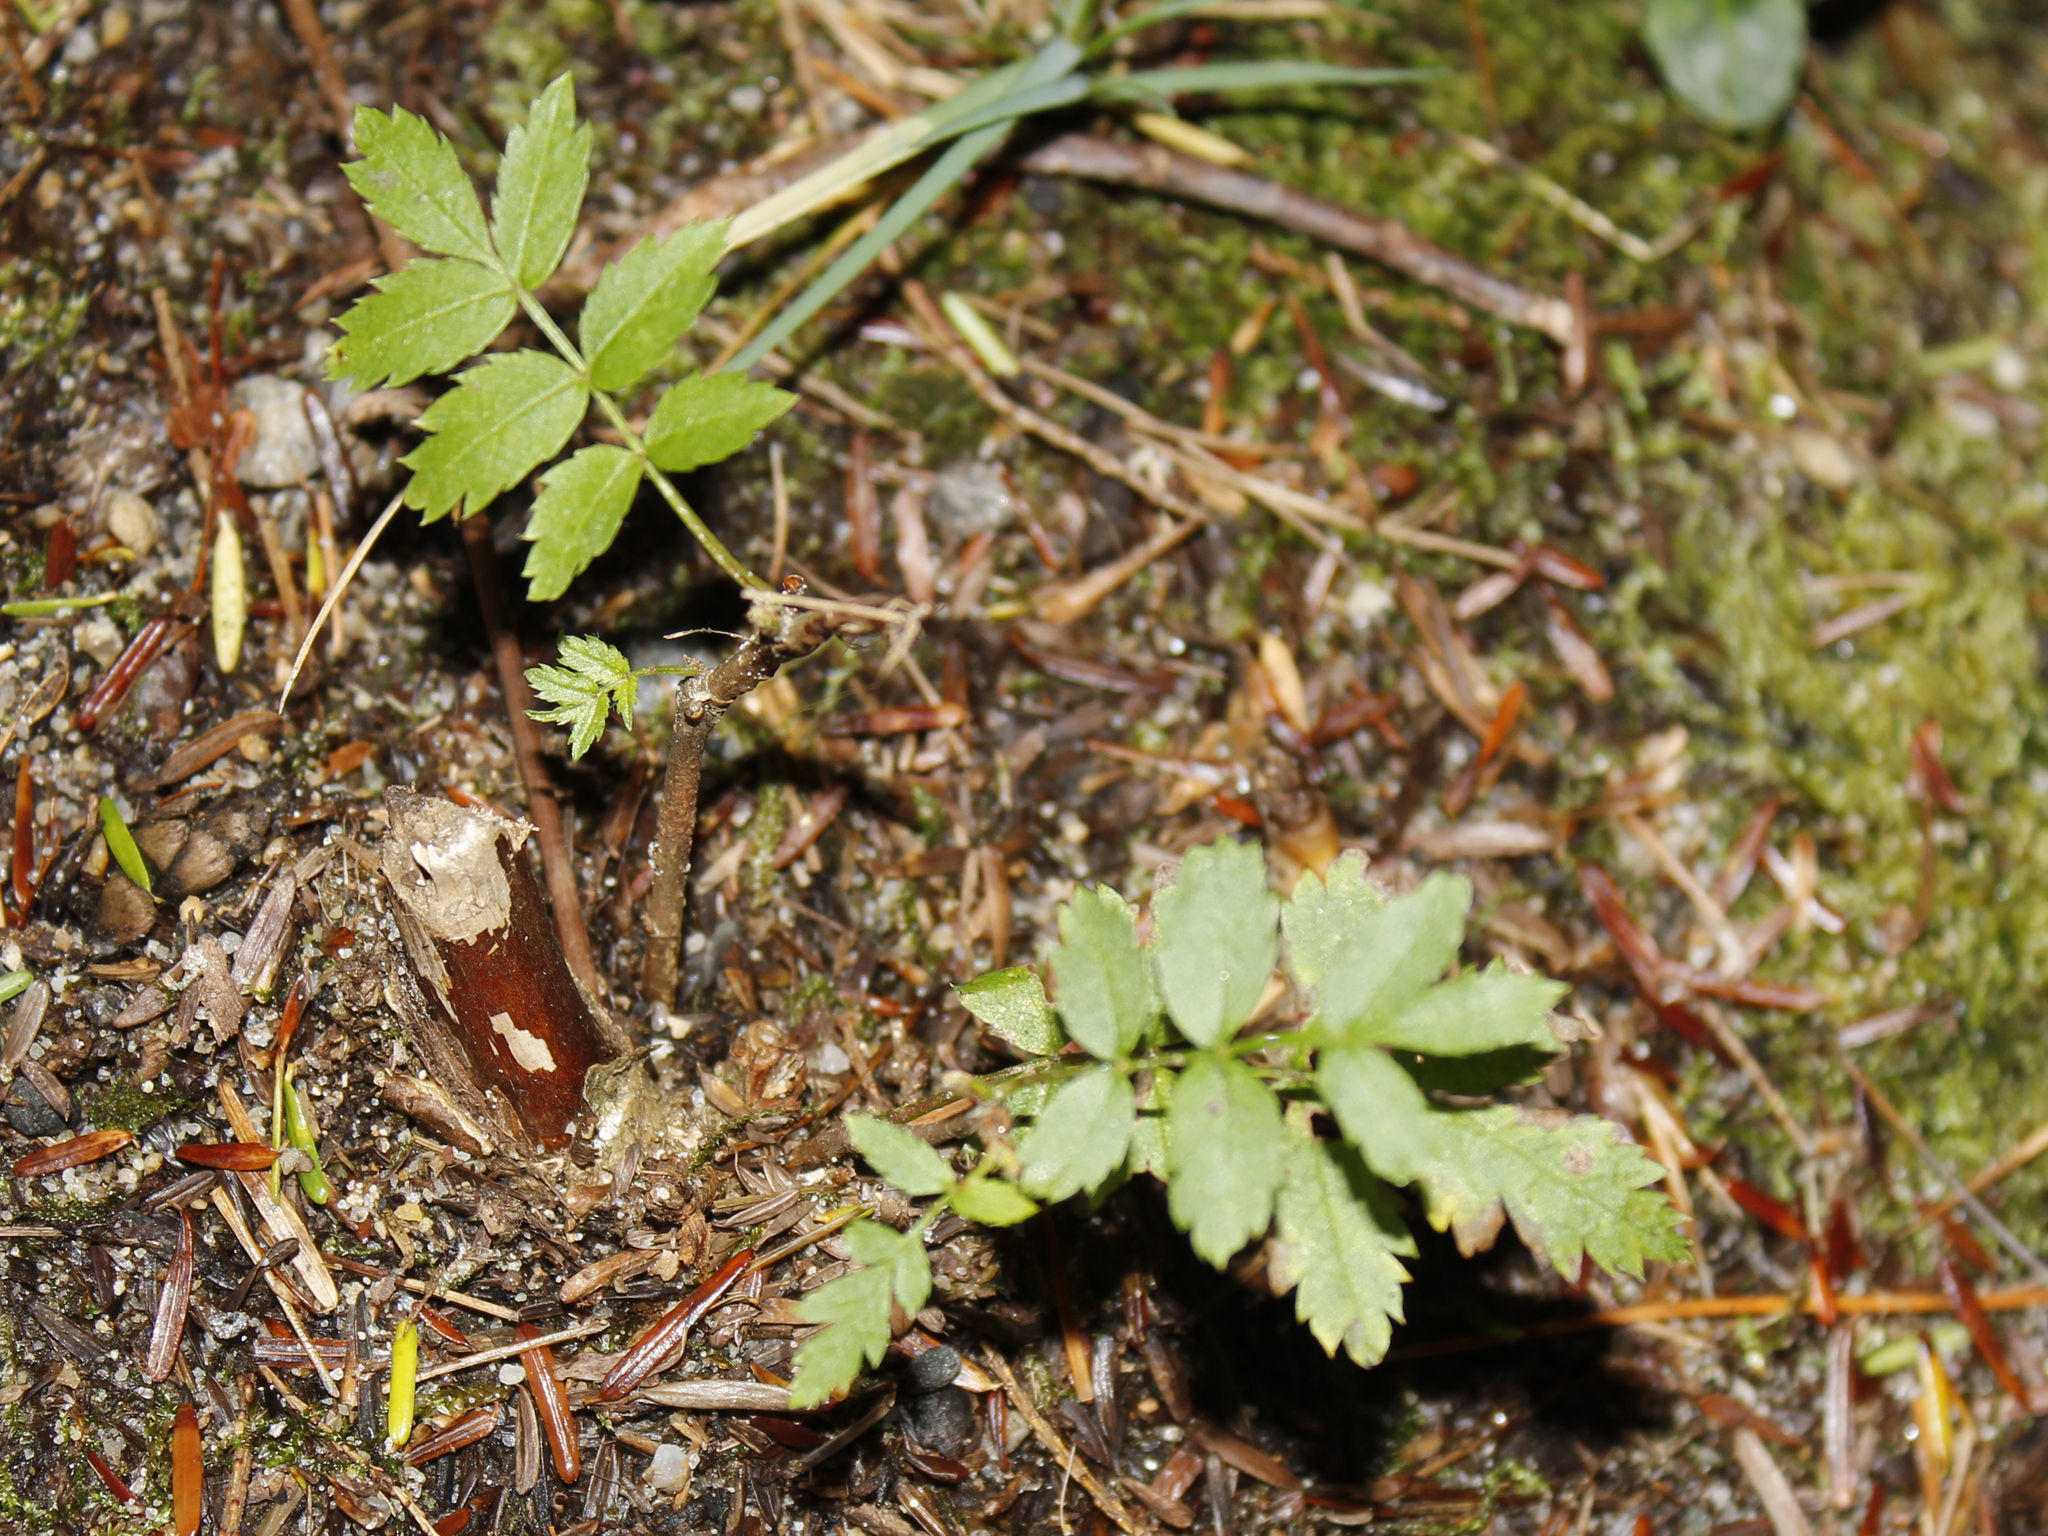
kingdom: Plantae
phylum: Tracheophyta
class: Magnoliopsida
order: Rosales
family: Rosaceae
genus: Sorbus
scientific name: Sorbus americana
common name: American mountain-ash
